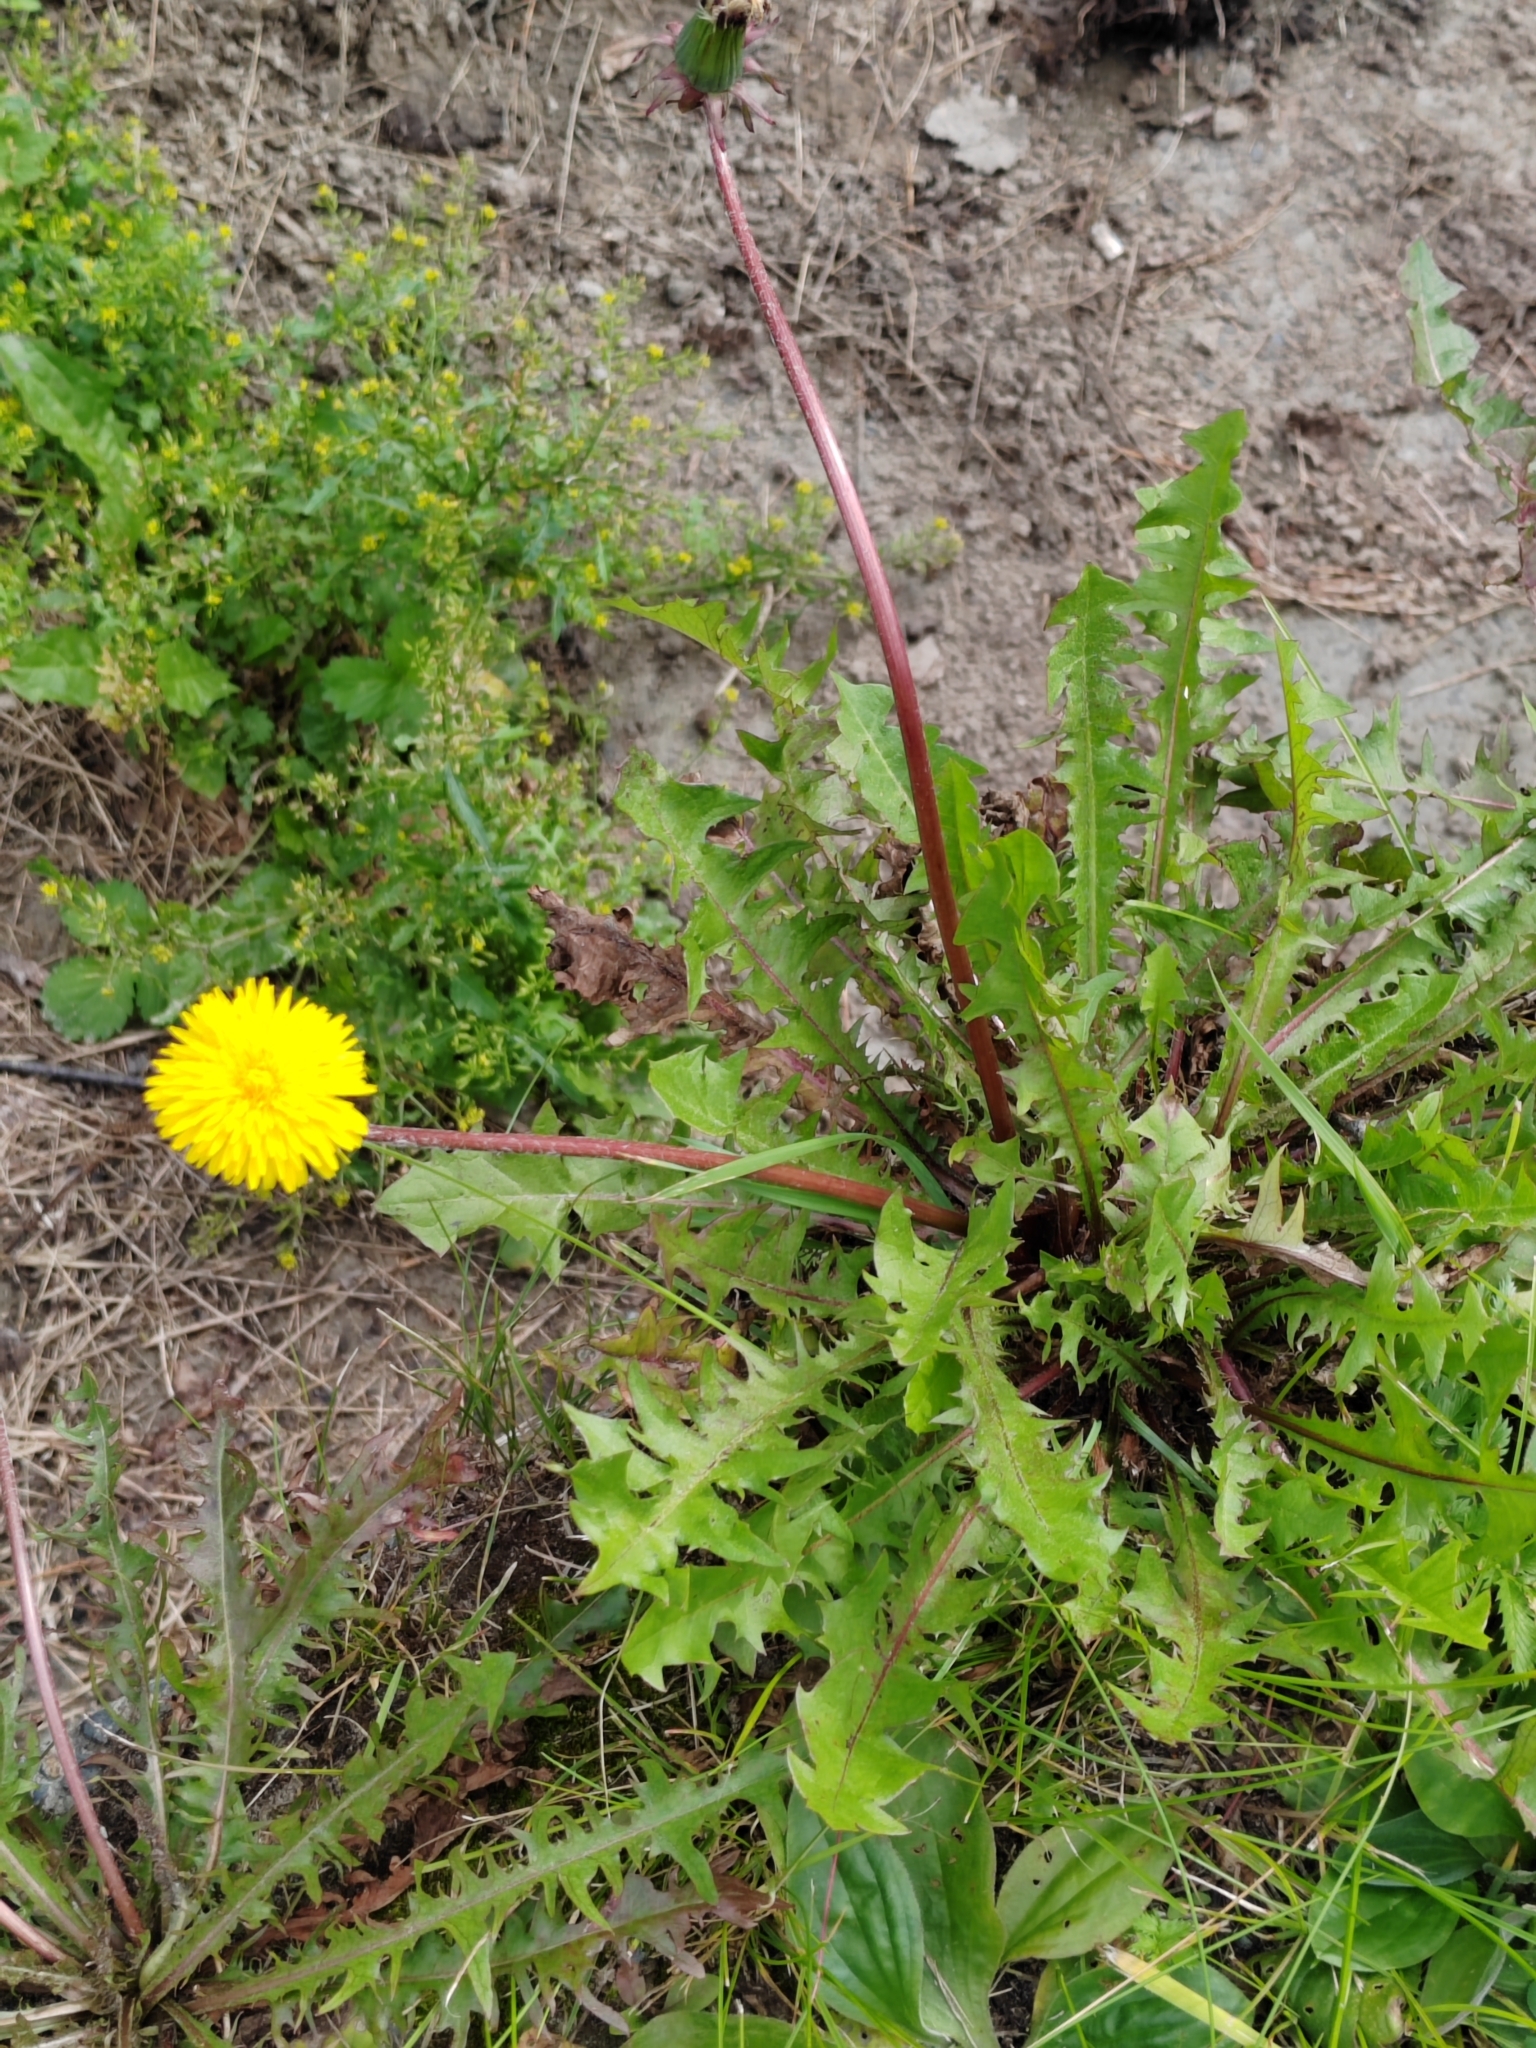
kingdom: Plantae
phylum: Tracheophyta
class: Magnoliopsida
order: Asterales
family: Asteraceae
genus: Taraxacum
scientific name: Taraxacum officinale
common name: Common dandelion
